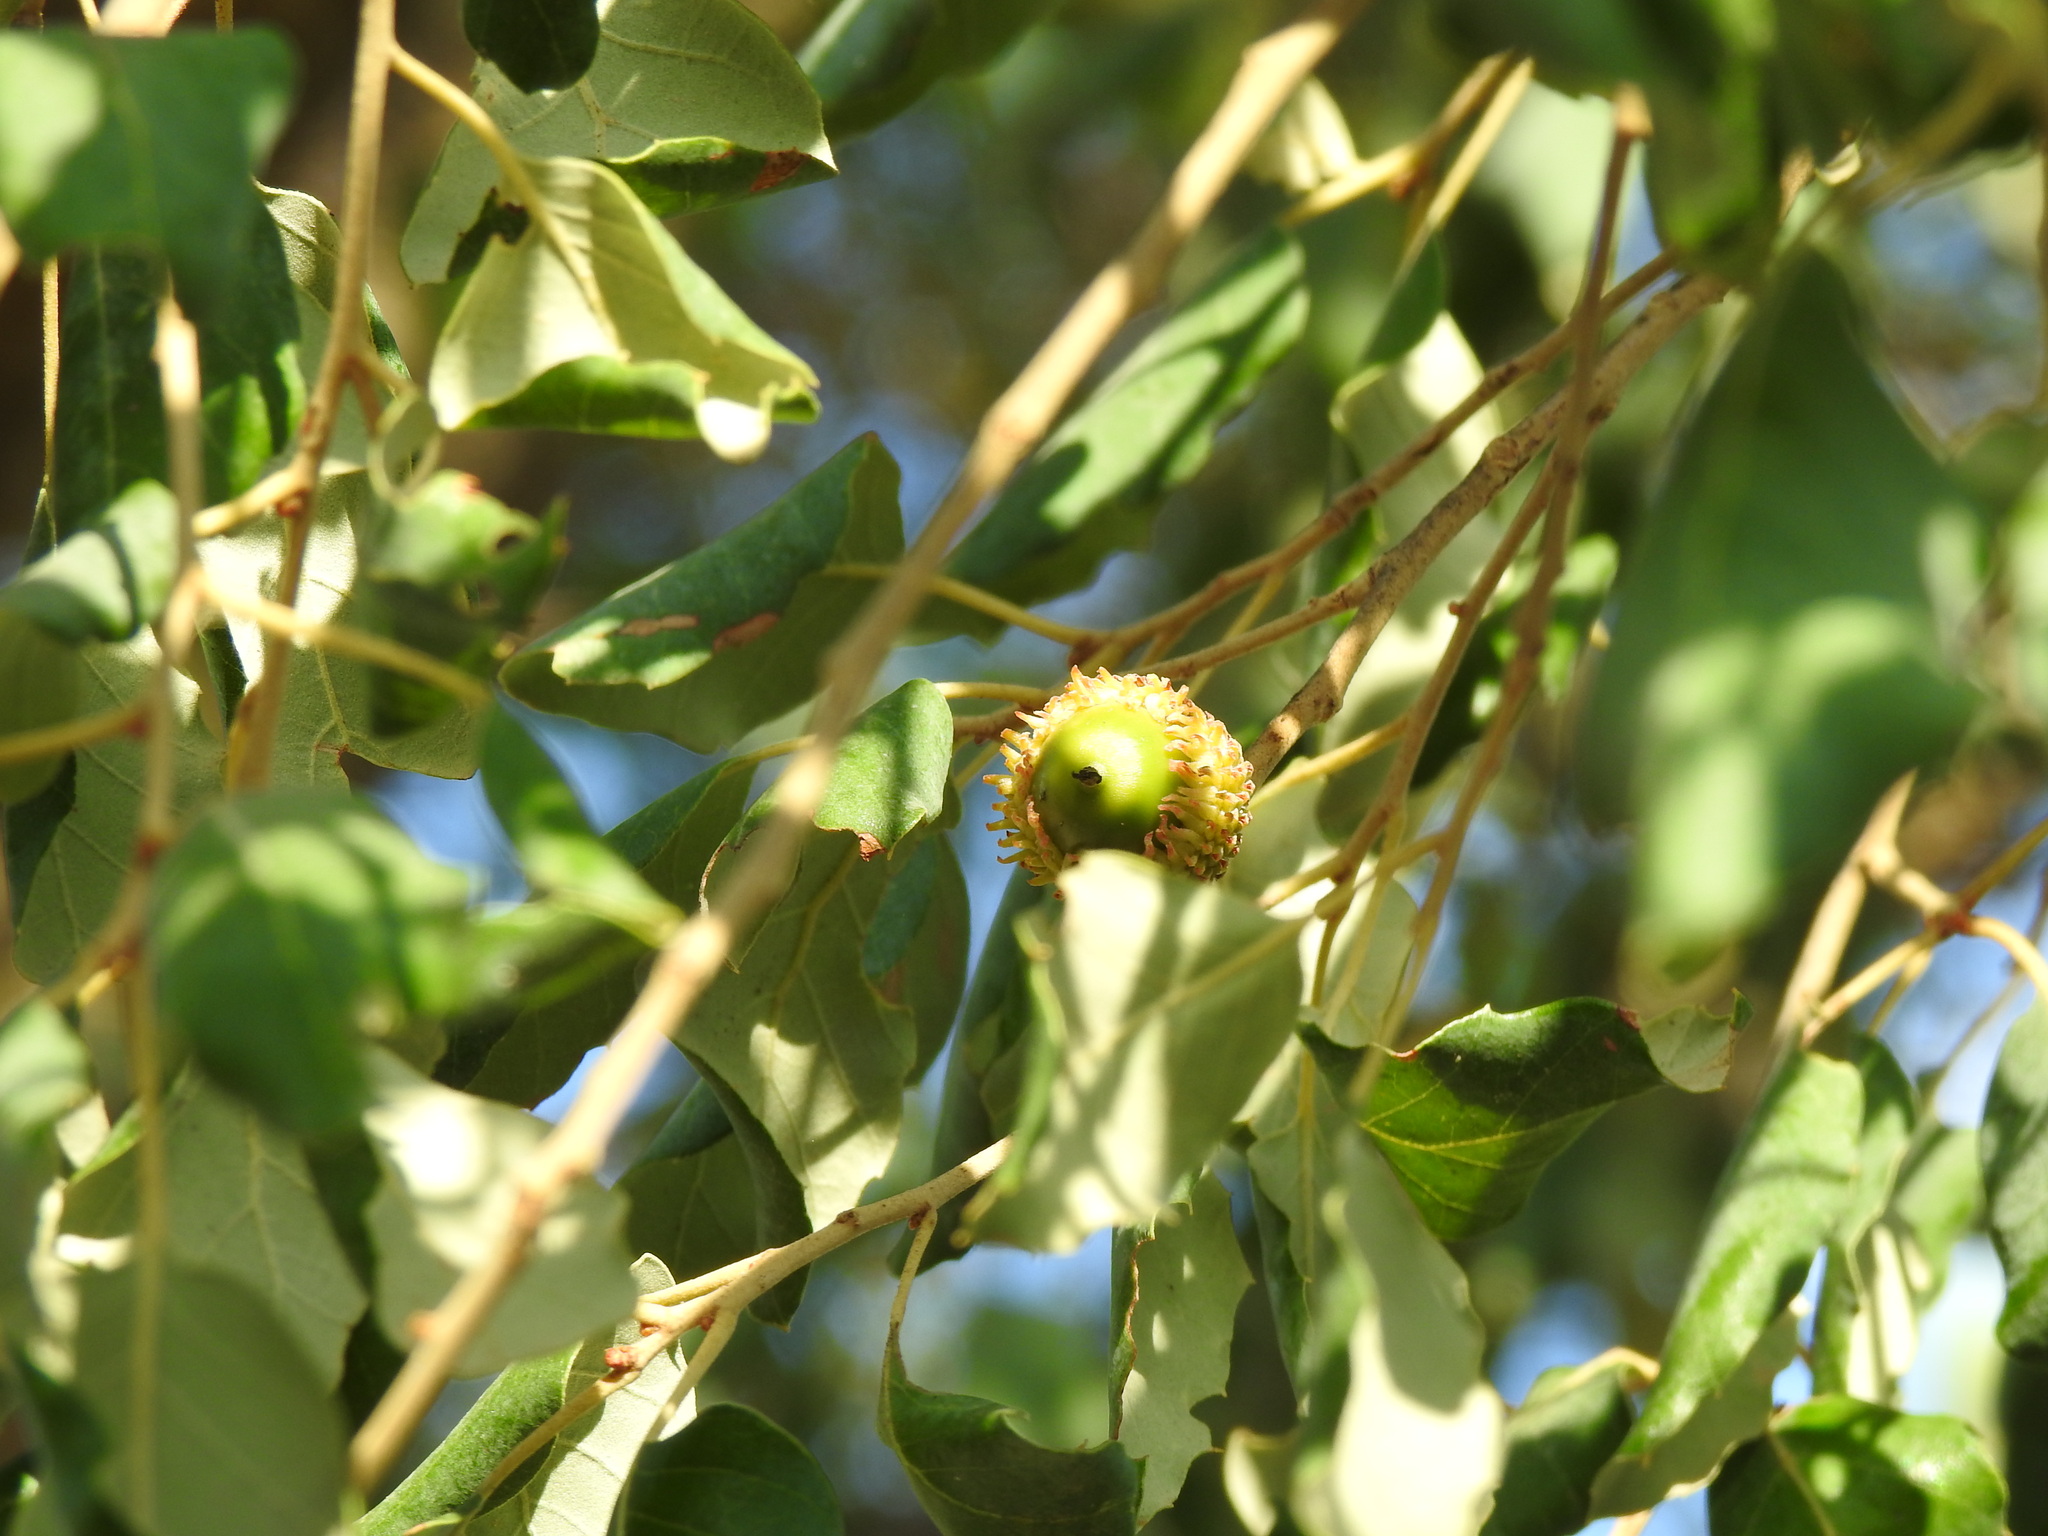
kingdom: Plantae
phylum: Tracheophyta
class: Magnoliopsida
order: Fagales
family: Fagaceae
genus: Quercus
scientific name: Quercus suber
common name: Cork oak
